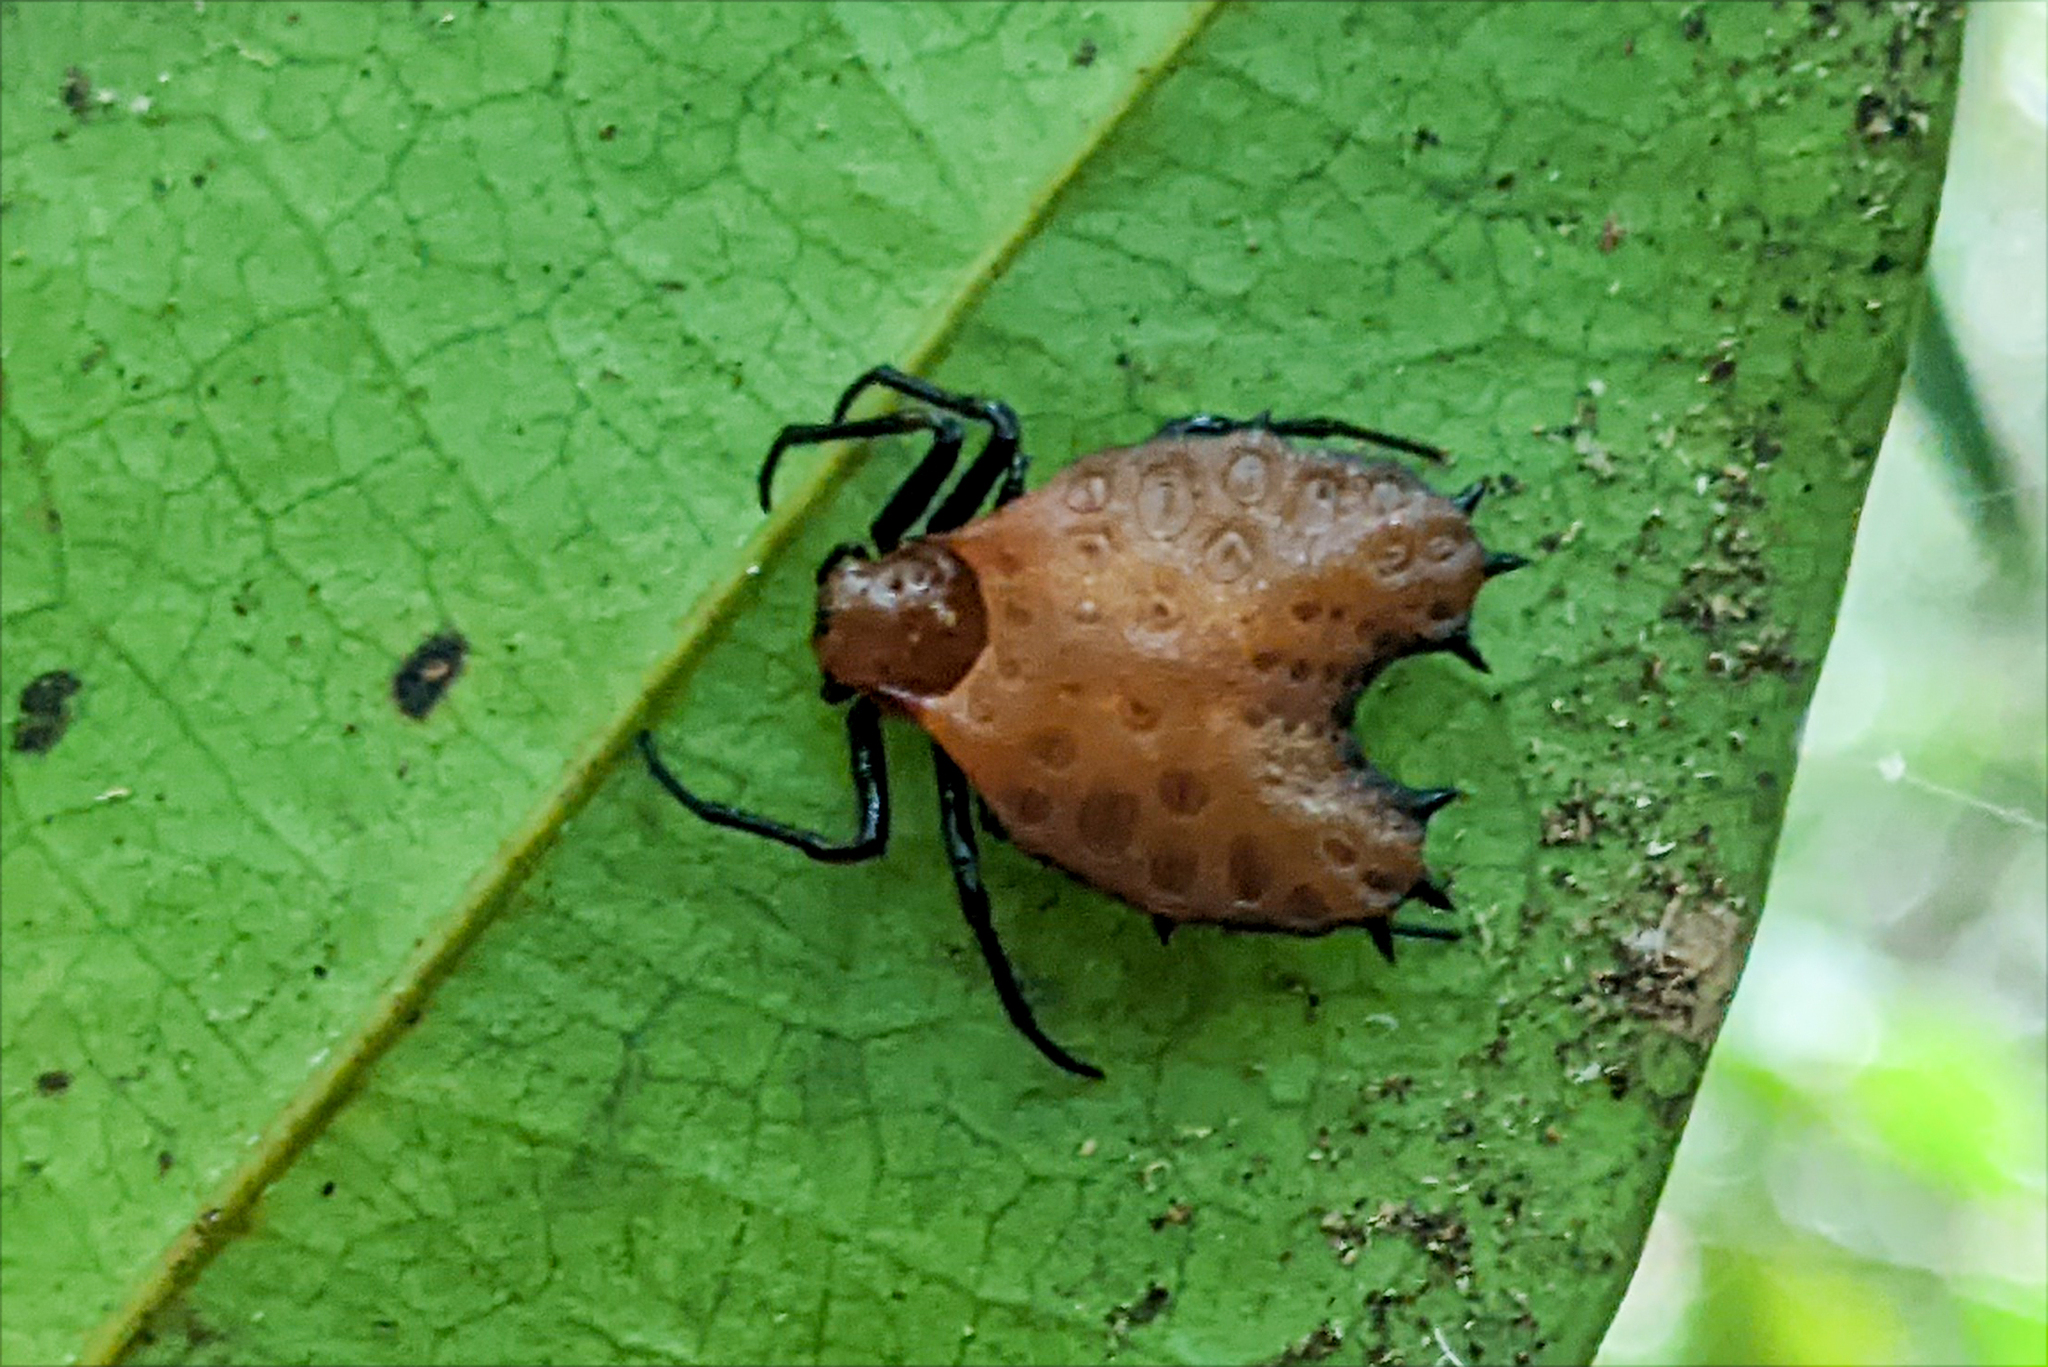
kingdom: Animalia
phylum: Arthropoda
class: Arachnida
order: Araneae
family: Araneidae
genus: Micrathena
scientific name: Micrathena clypeata
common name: Orb weavers
